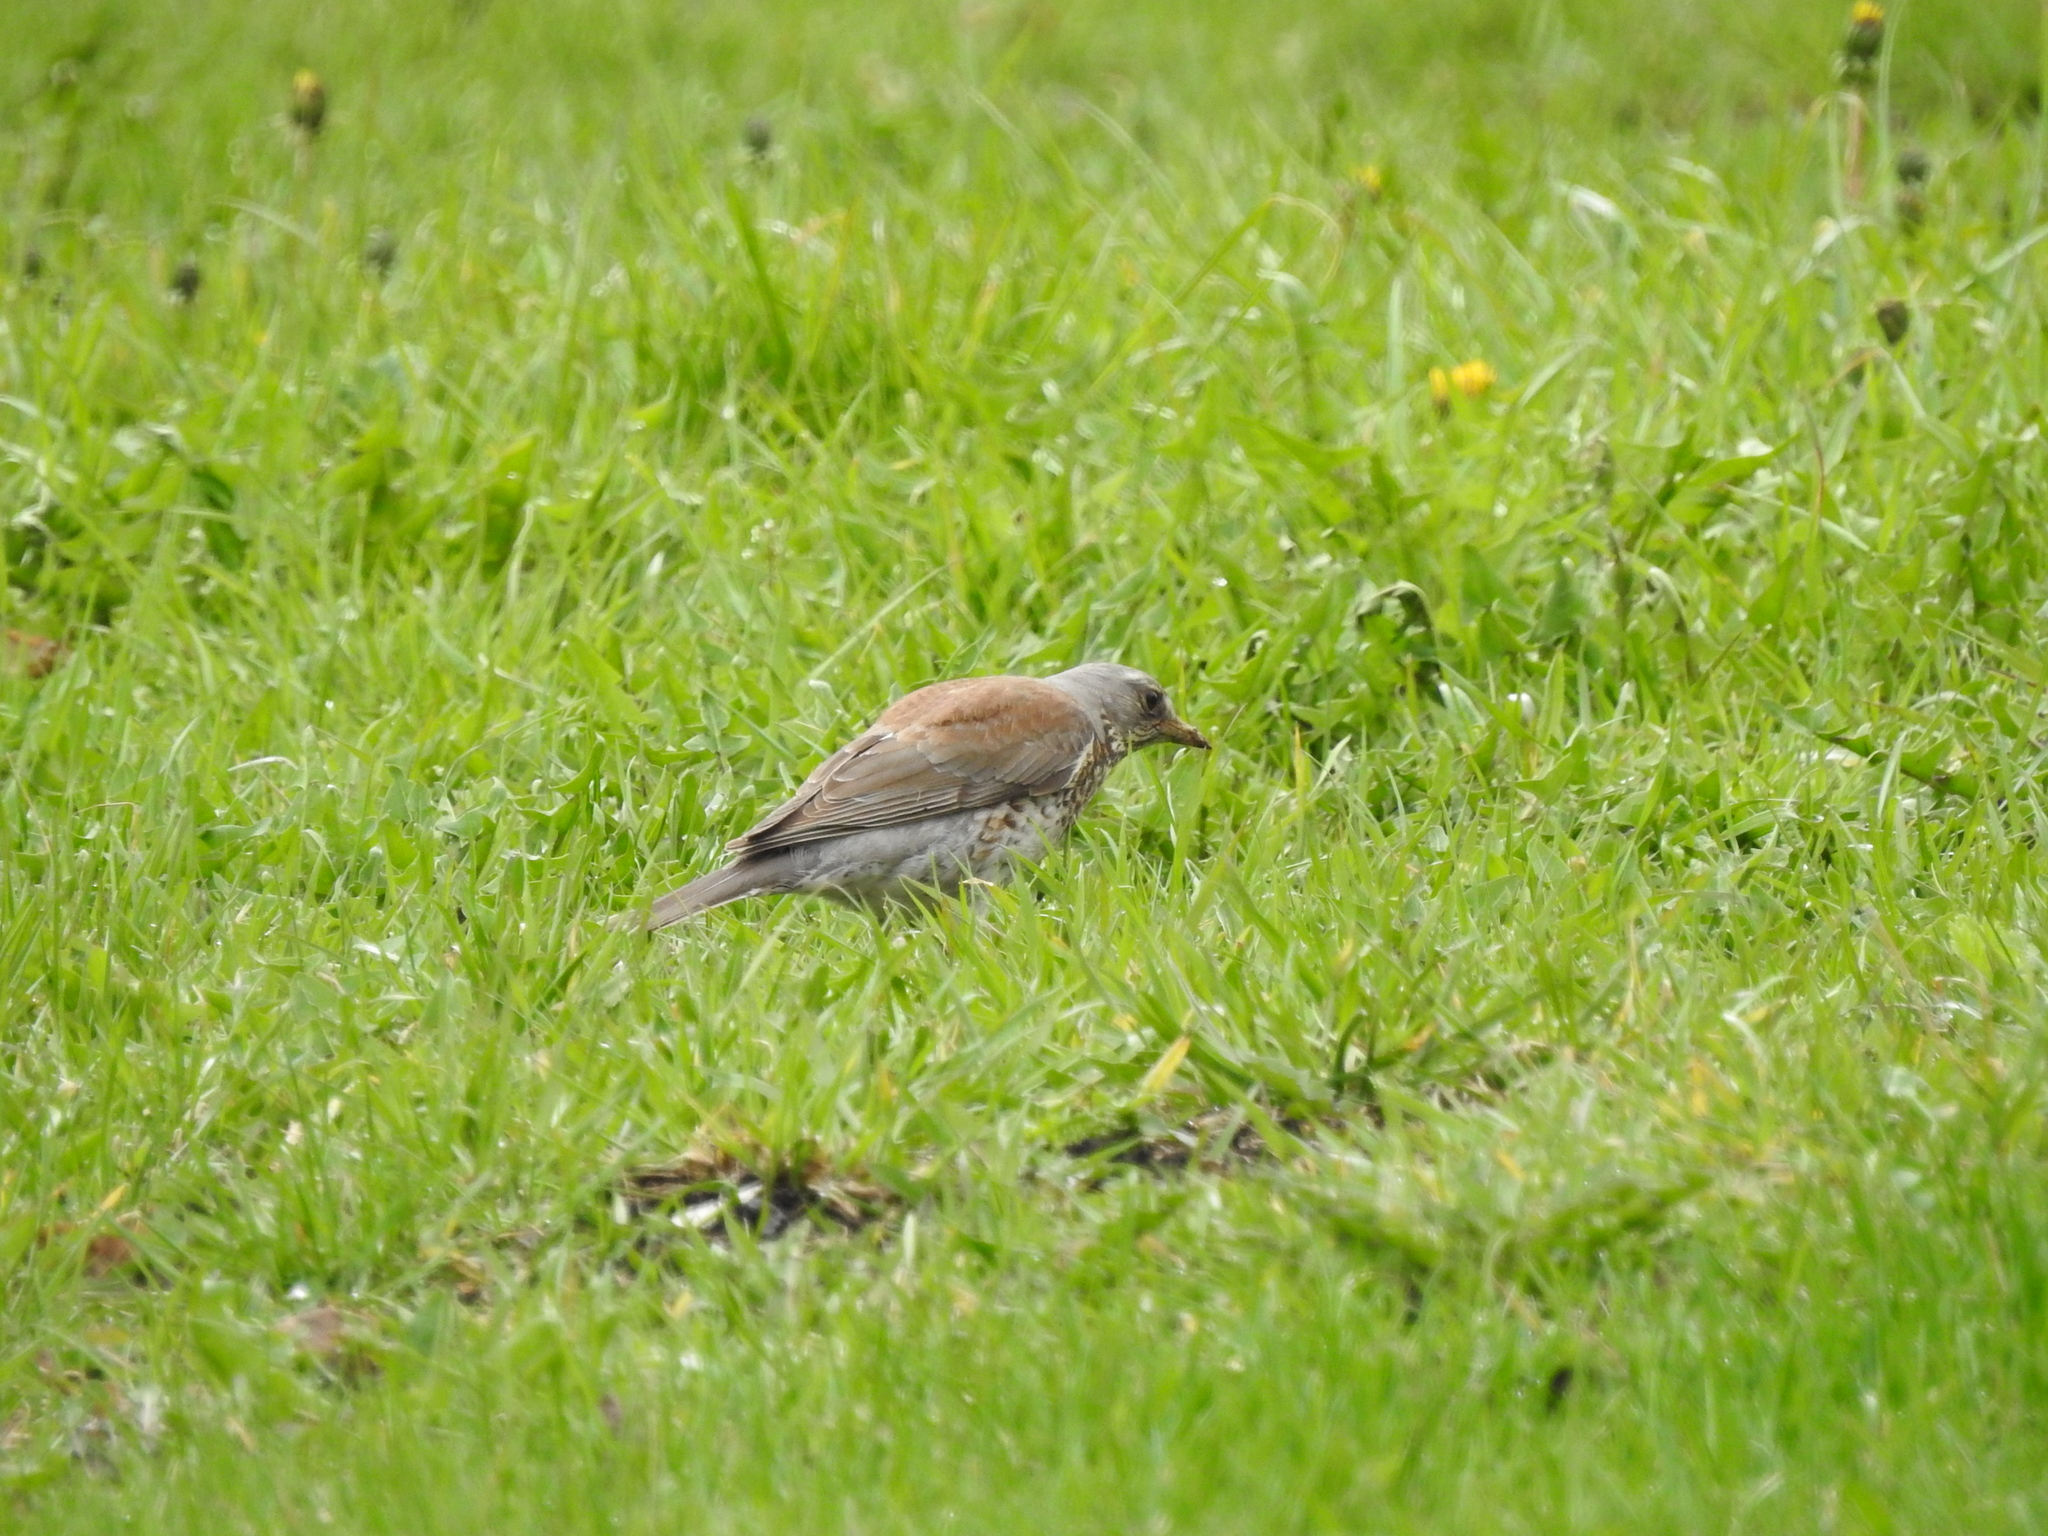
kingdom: Animalia
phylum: Chordata
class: Aves
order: Passeriformes
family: Turdidae
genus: Turdus
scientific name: Turdus pilaris
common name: Fieldfare
